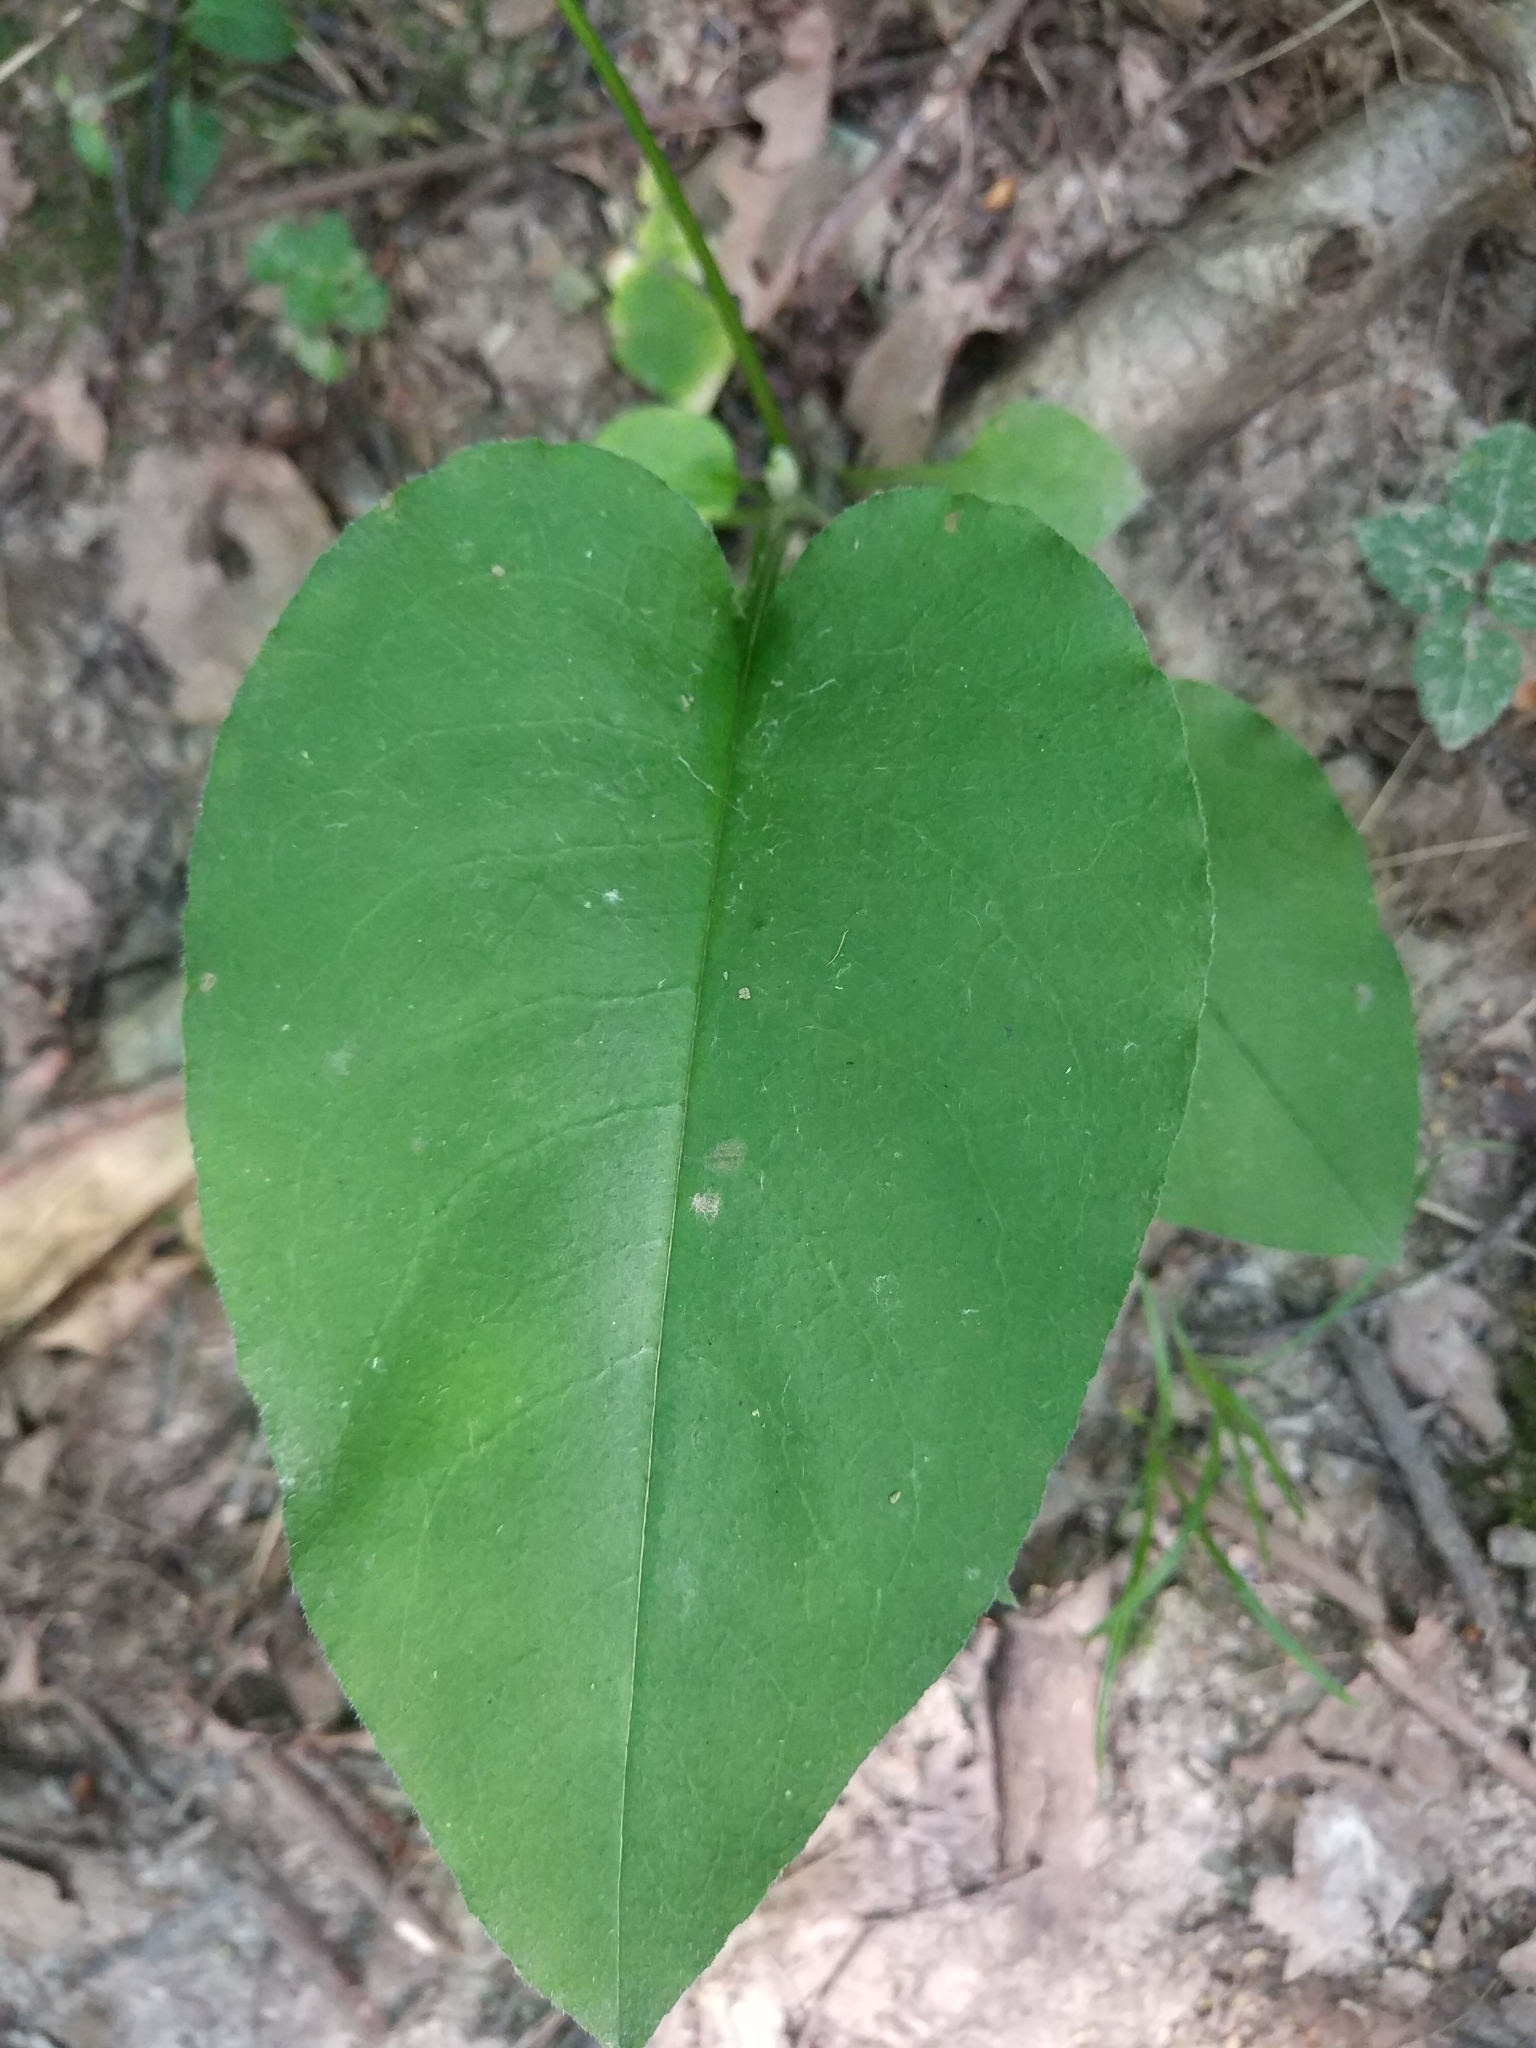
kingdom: Plantae
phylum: Tracheophyta
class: Magnoliopsida
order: Boraginales
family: Boraginaceae
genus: Pulmonaria
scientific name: Pulmonaria obscura
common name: Suffolk lungwort
